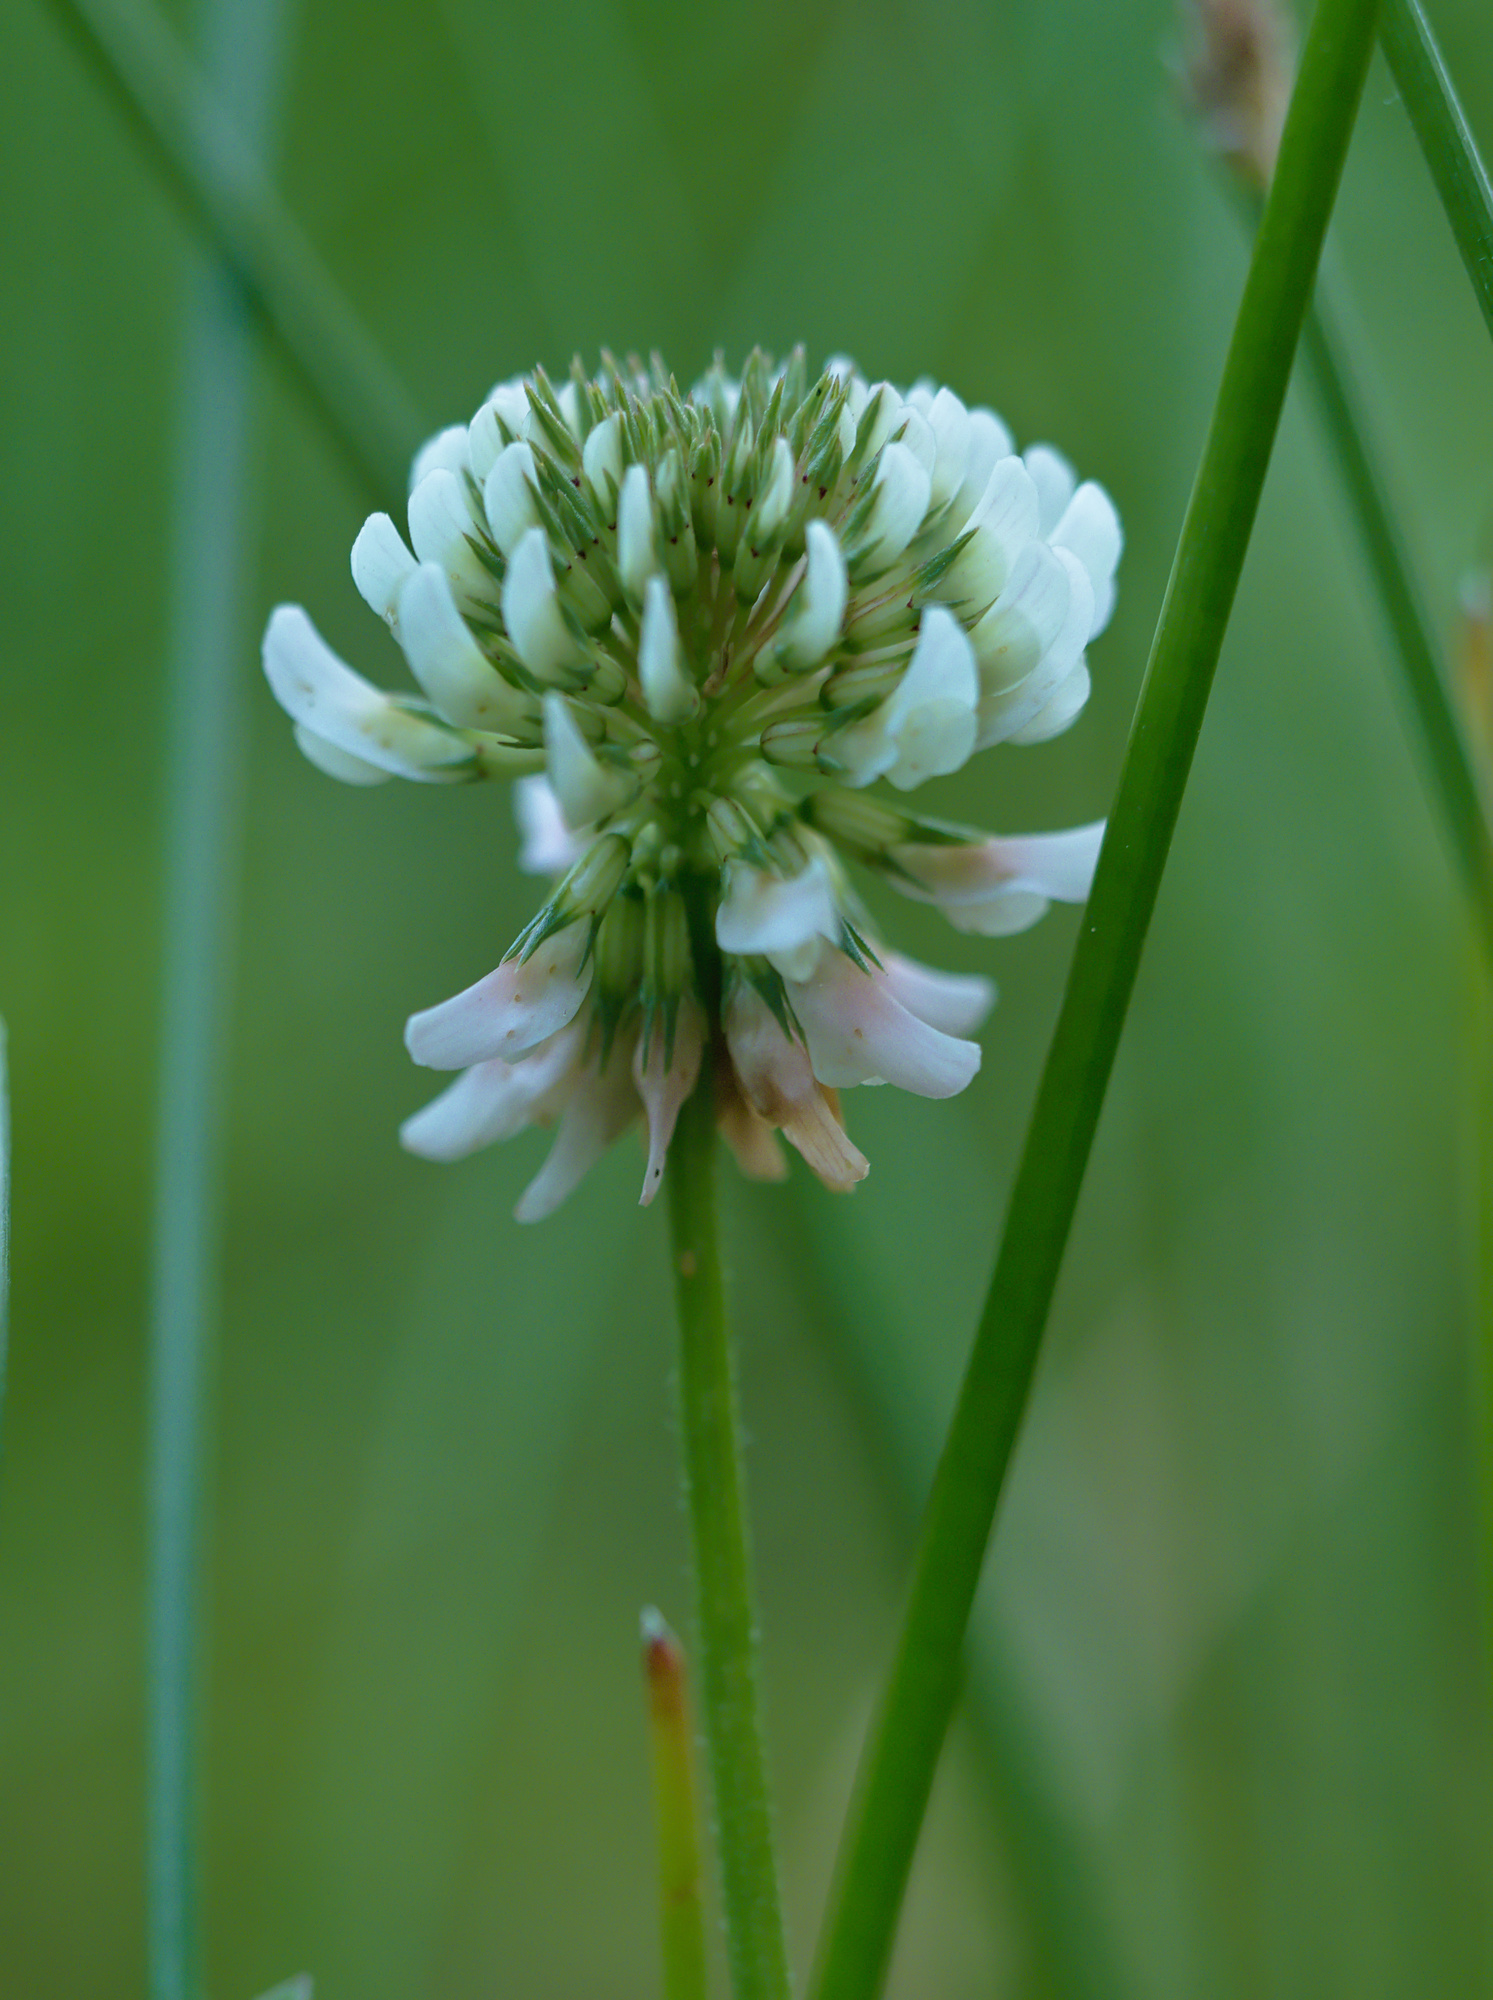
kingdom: Plantae
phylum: Tracheophyta
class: Magnoliopsida
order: Fabales
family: Fabaceae
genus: Trifolium
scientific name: Trifolium repens
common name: White clover
